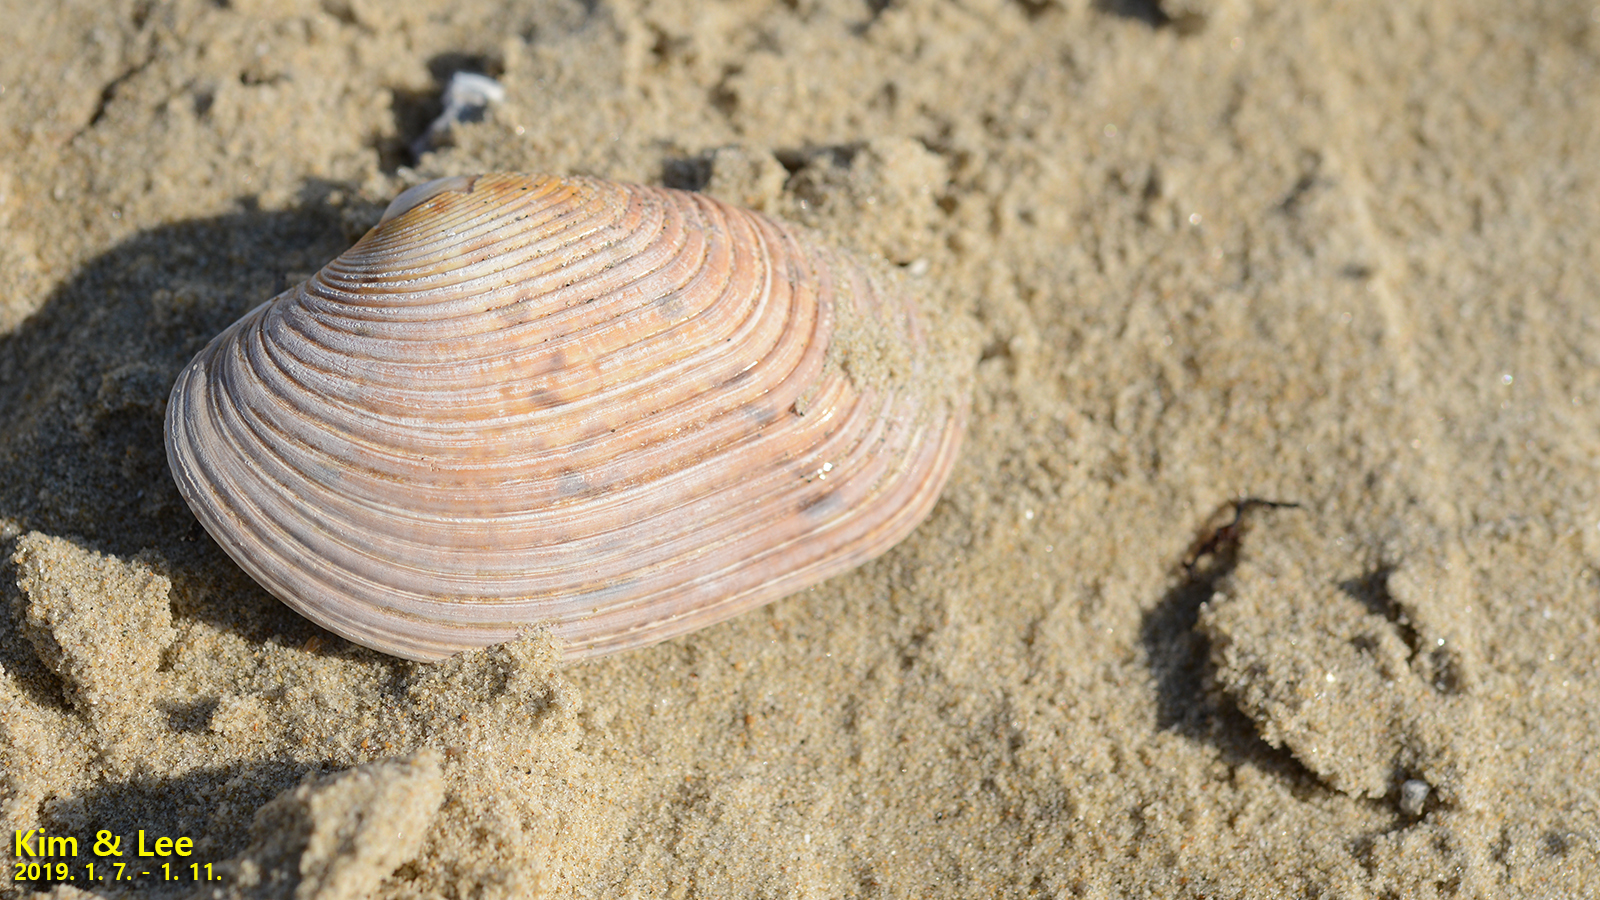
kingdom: Animalia
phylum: Mollusca
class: Bivalvia
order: Venerida
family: Veneridae
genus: Paphia
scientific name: Paphia euglypta
